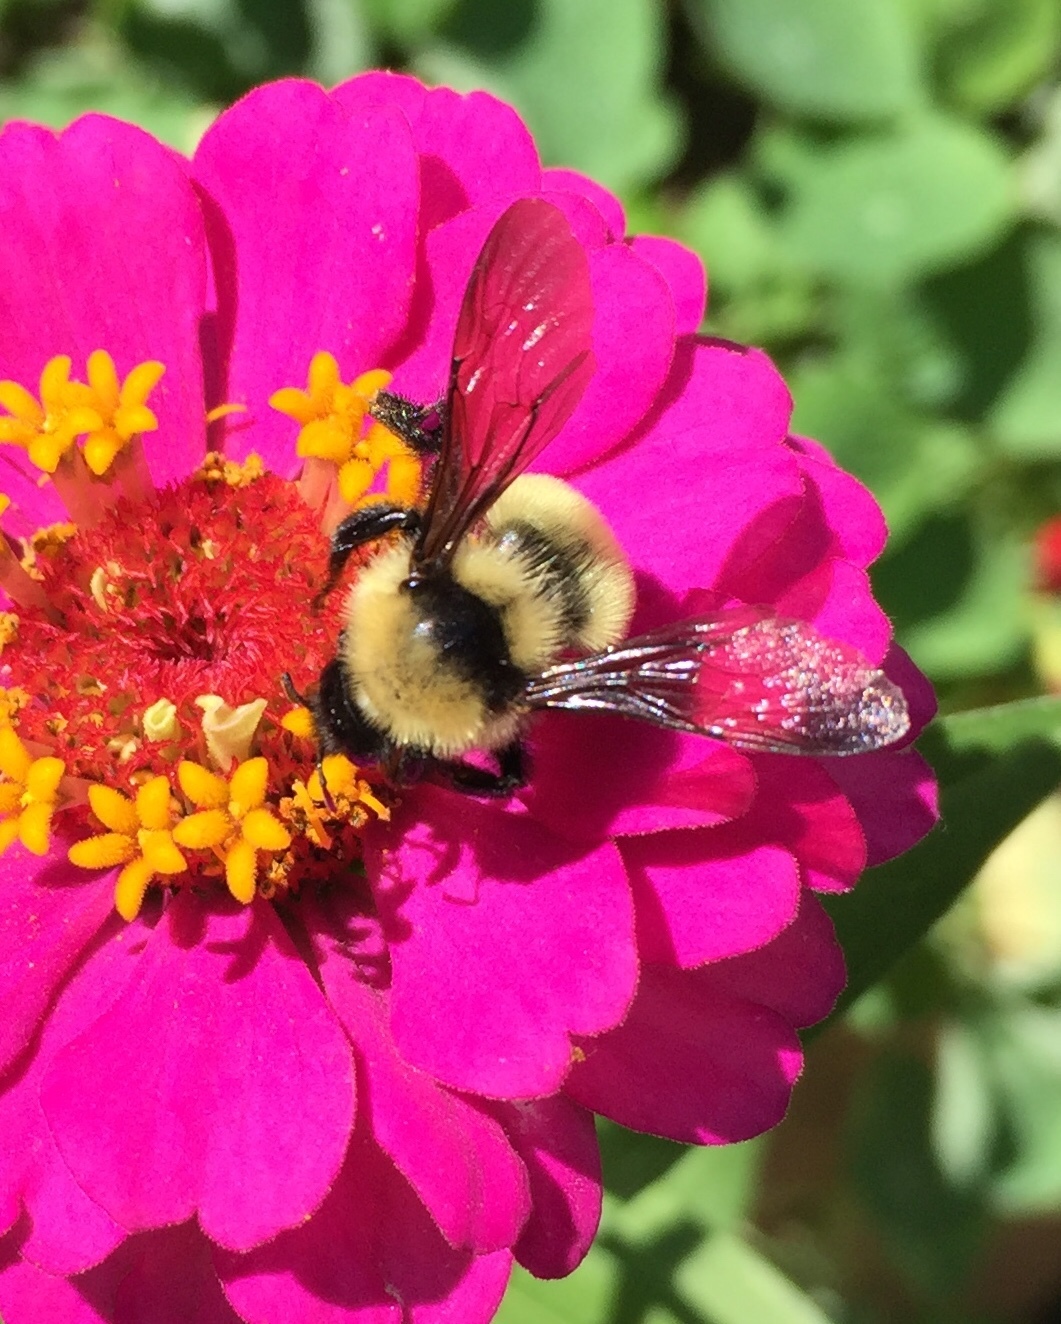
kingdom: Animalia
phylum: Arthropoda
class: Insecta
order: Hymenoptera
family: Apidae
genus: Bombus
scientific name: Bombus fervidus
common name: Yellow bumble bee
